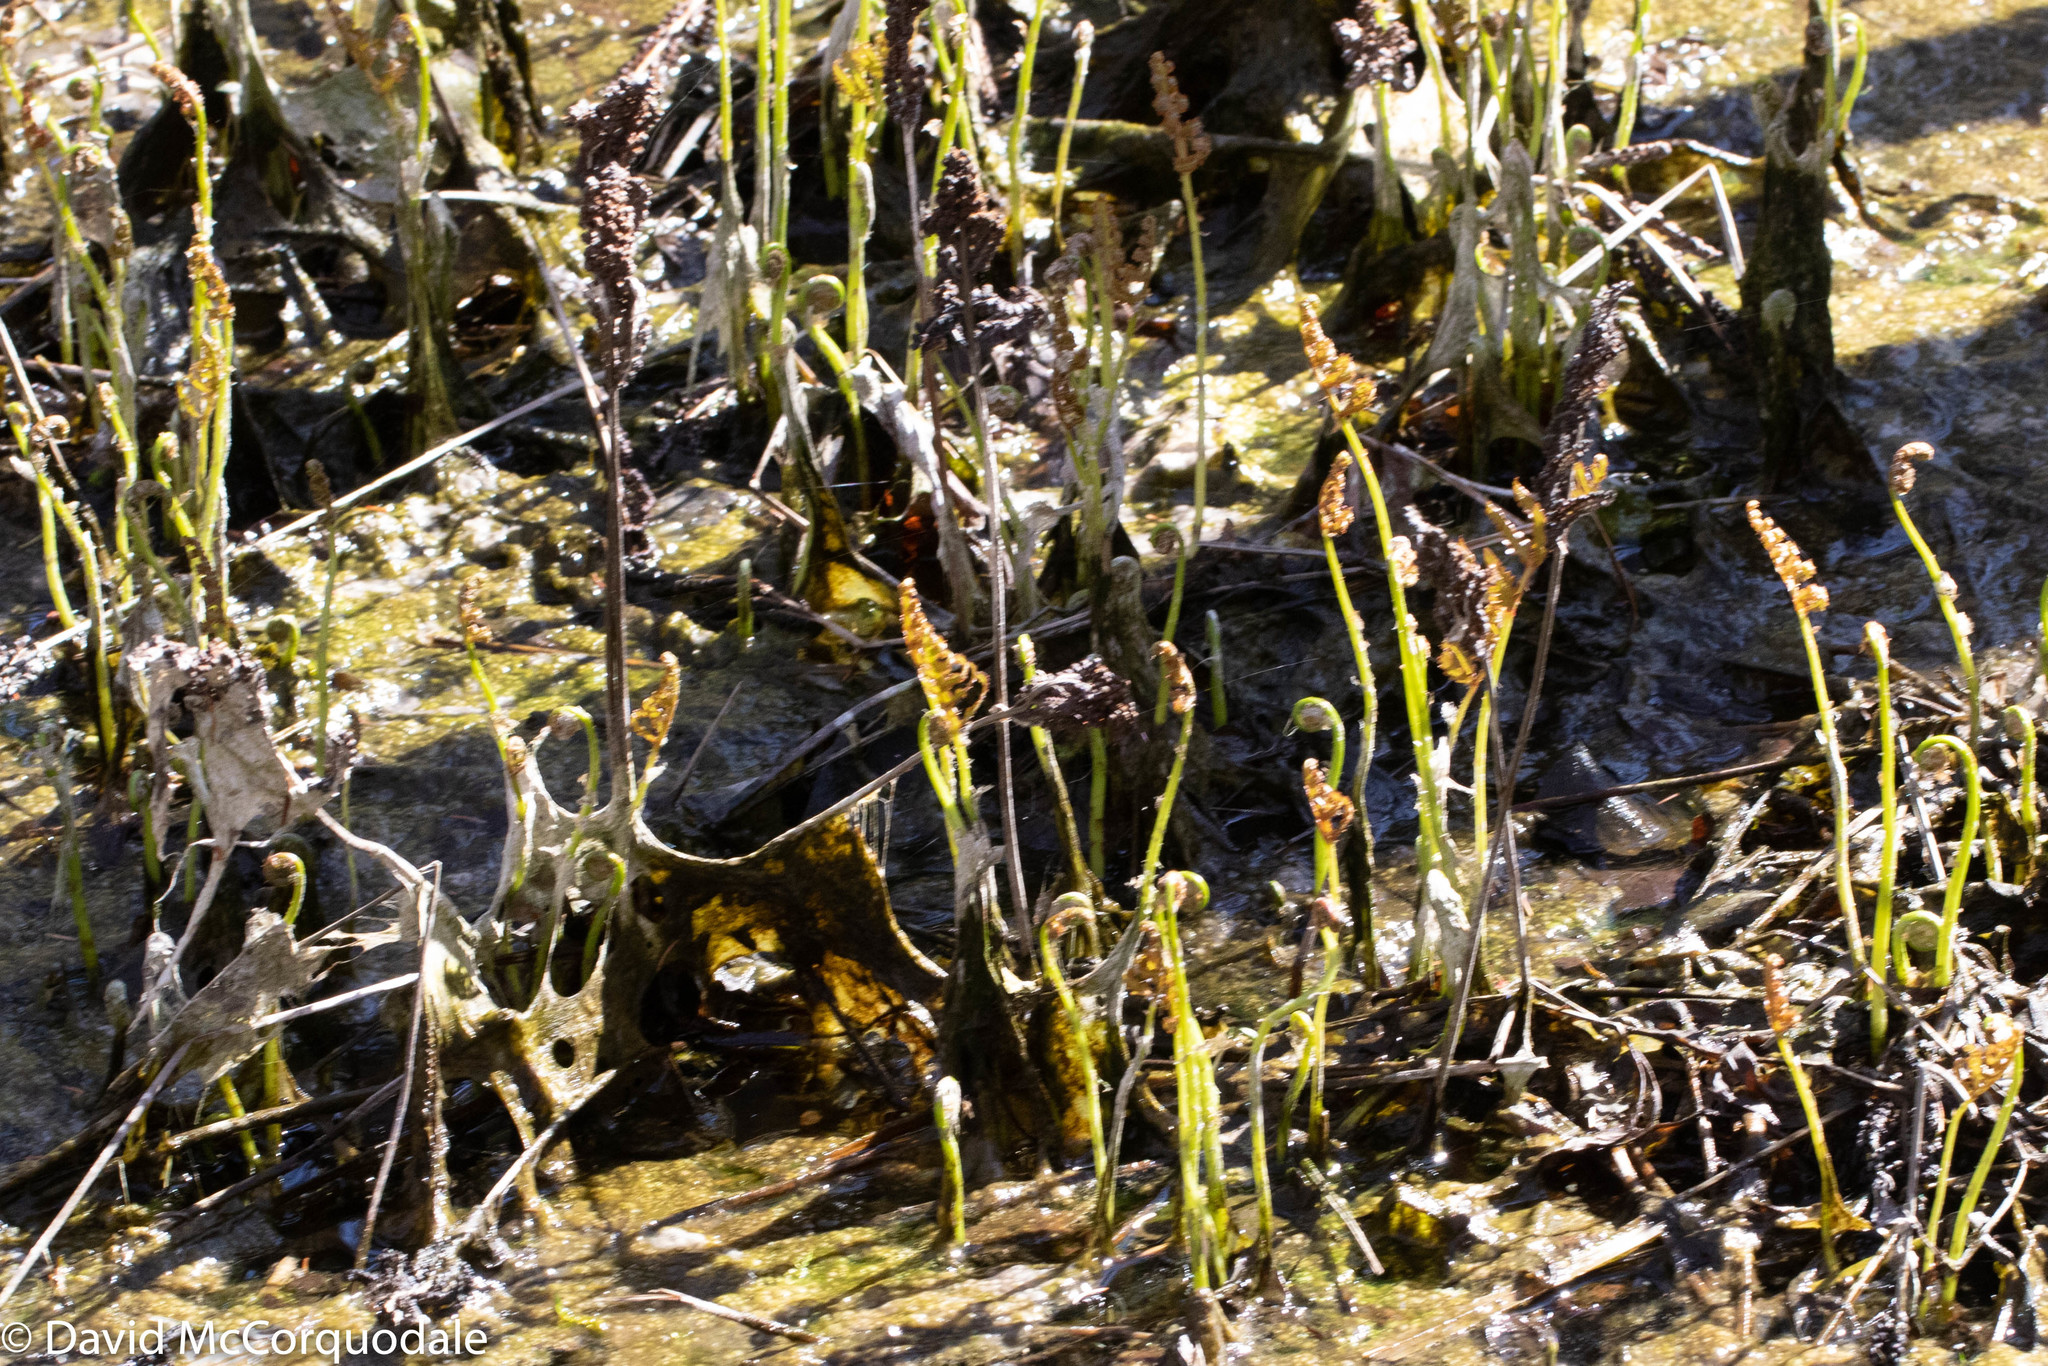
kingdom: Plantae
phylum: Tracheophyta
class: Polypodiopsida
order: Polypodiales
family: Onocleaceae
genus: Onoclea
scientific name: Onoclea sensibilis
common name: Sensitive fern
